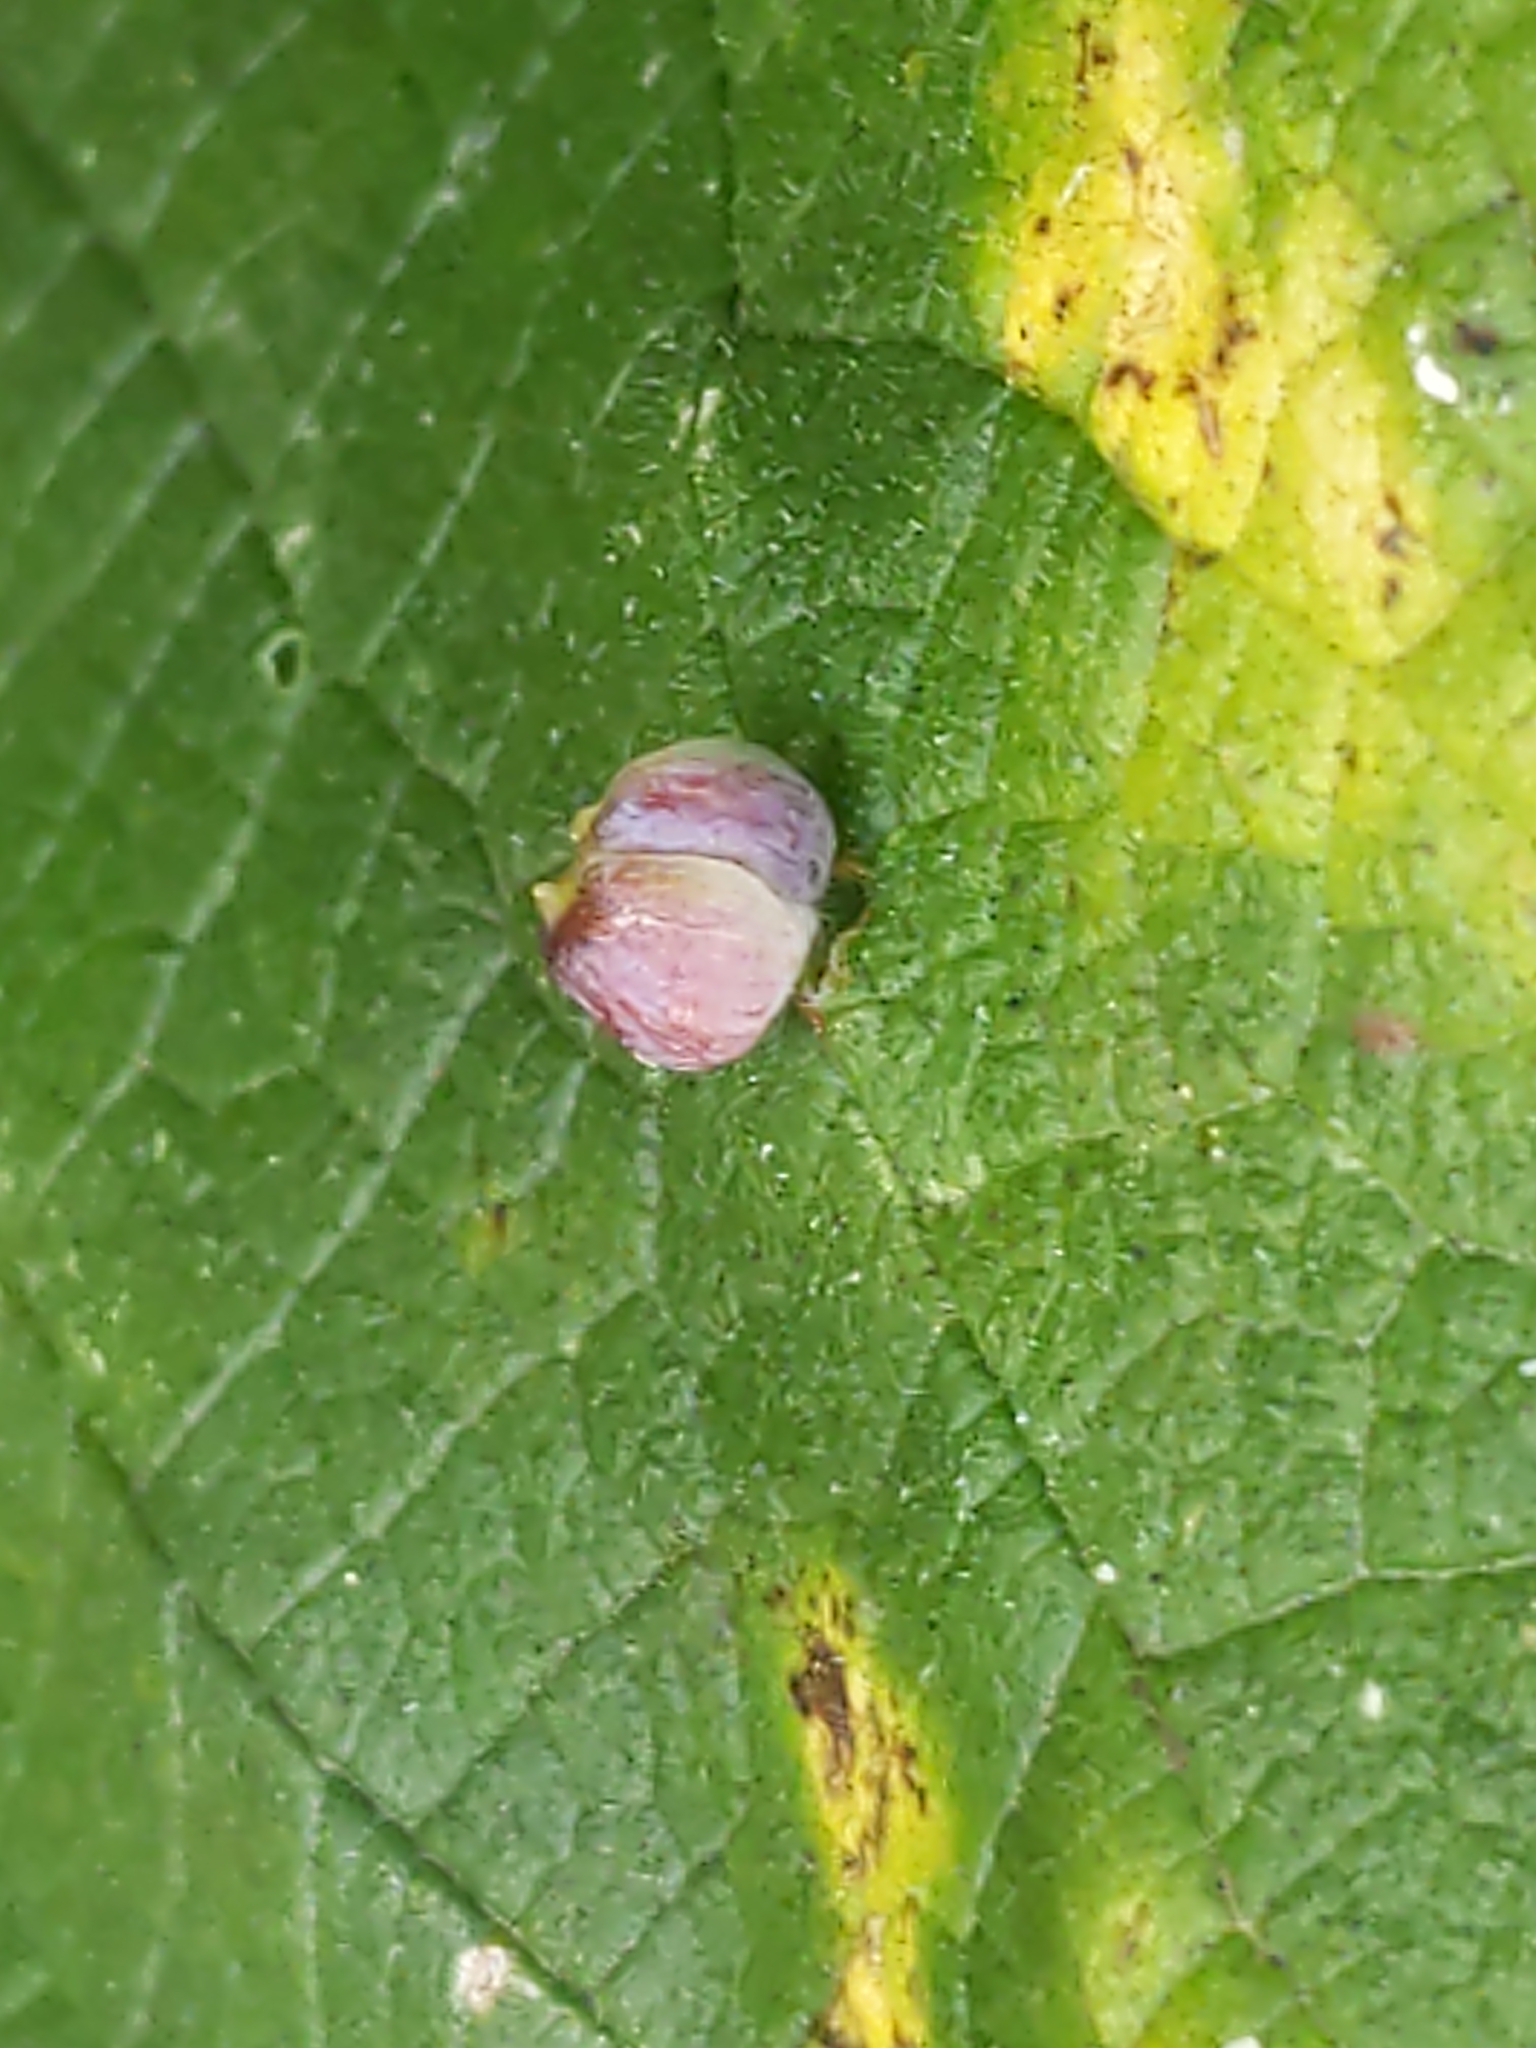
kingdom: Animalia
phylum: Arthropoda
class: Insecta
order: Diptera
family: Cecidomyiidae
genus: Celticecis
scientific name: Celticecis globosa
